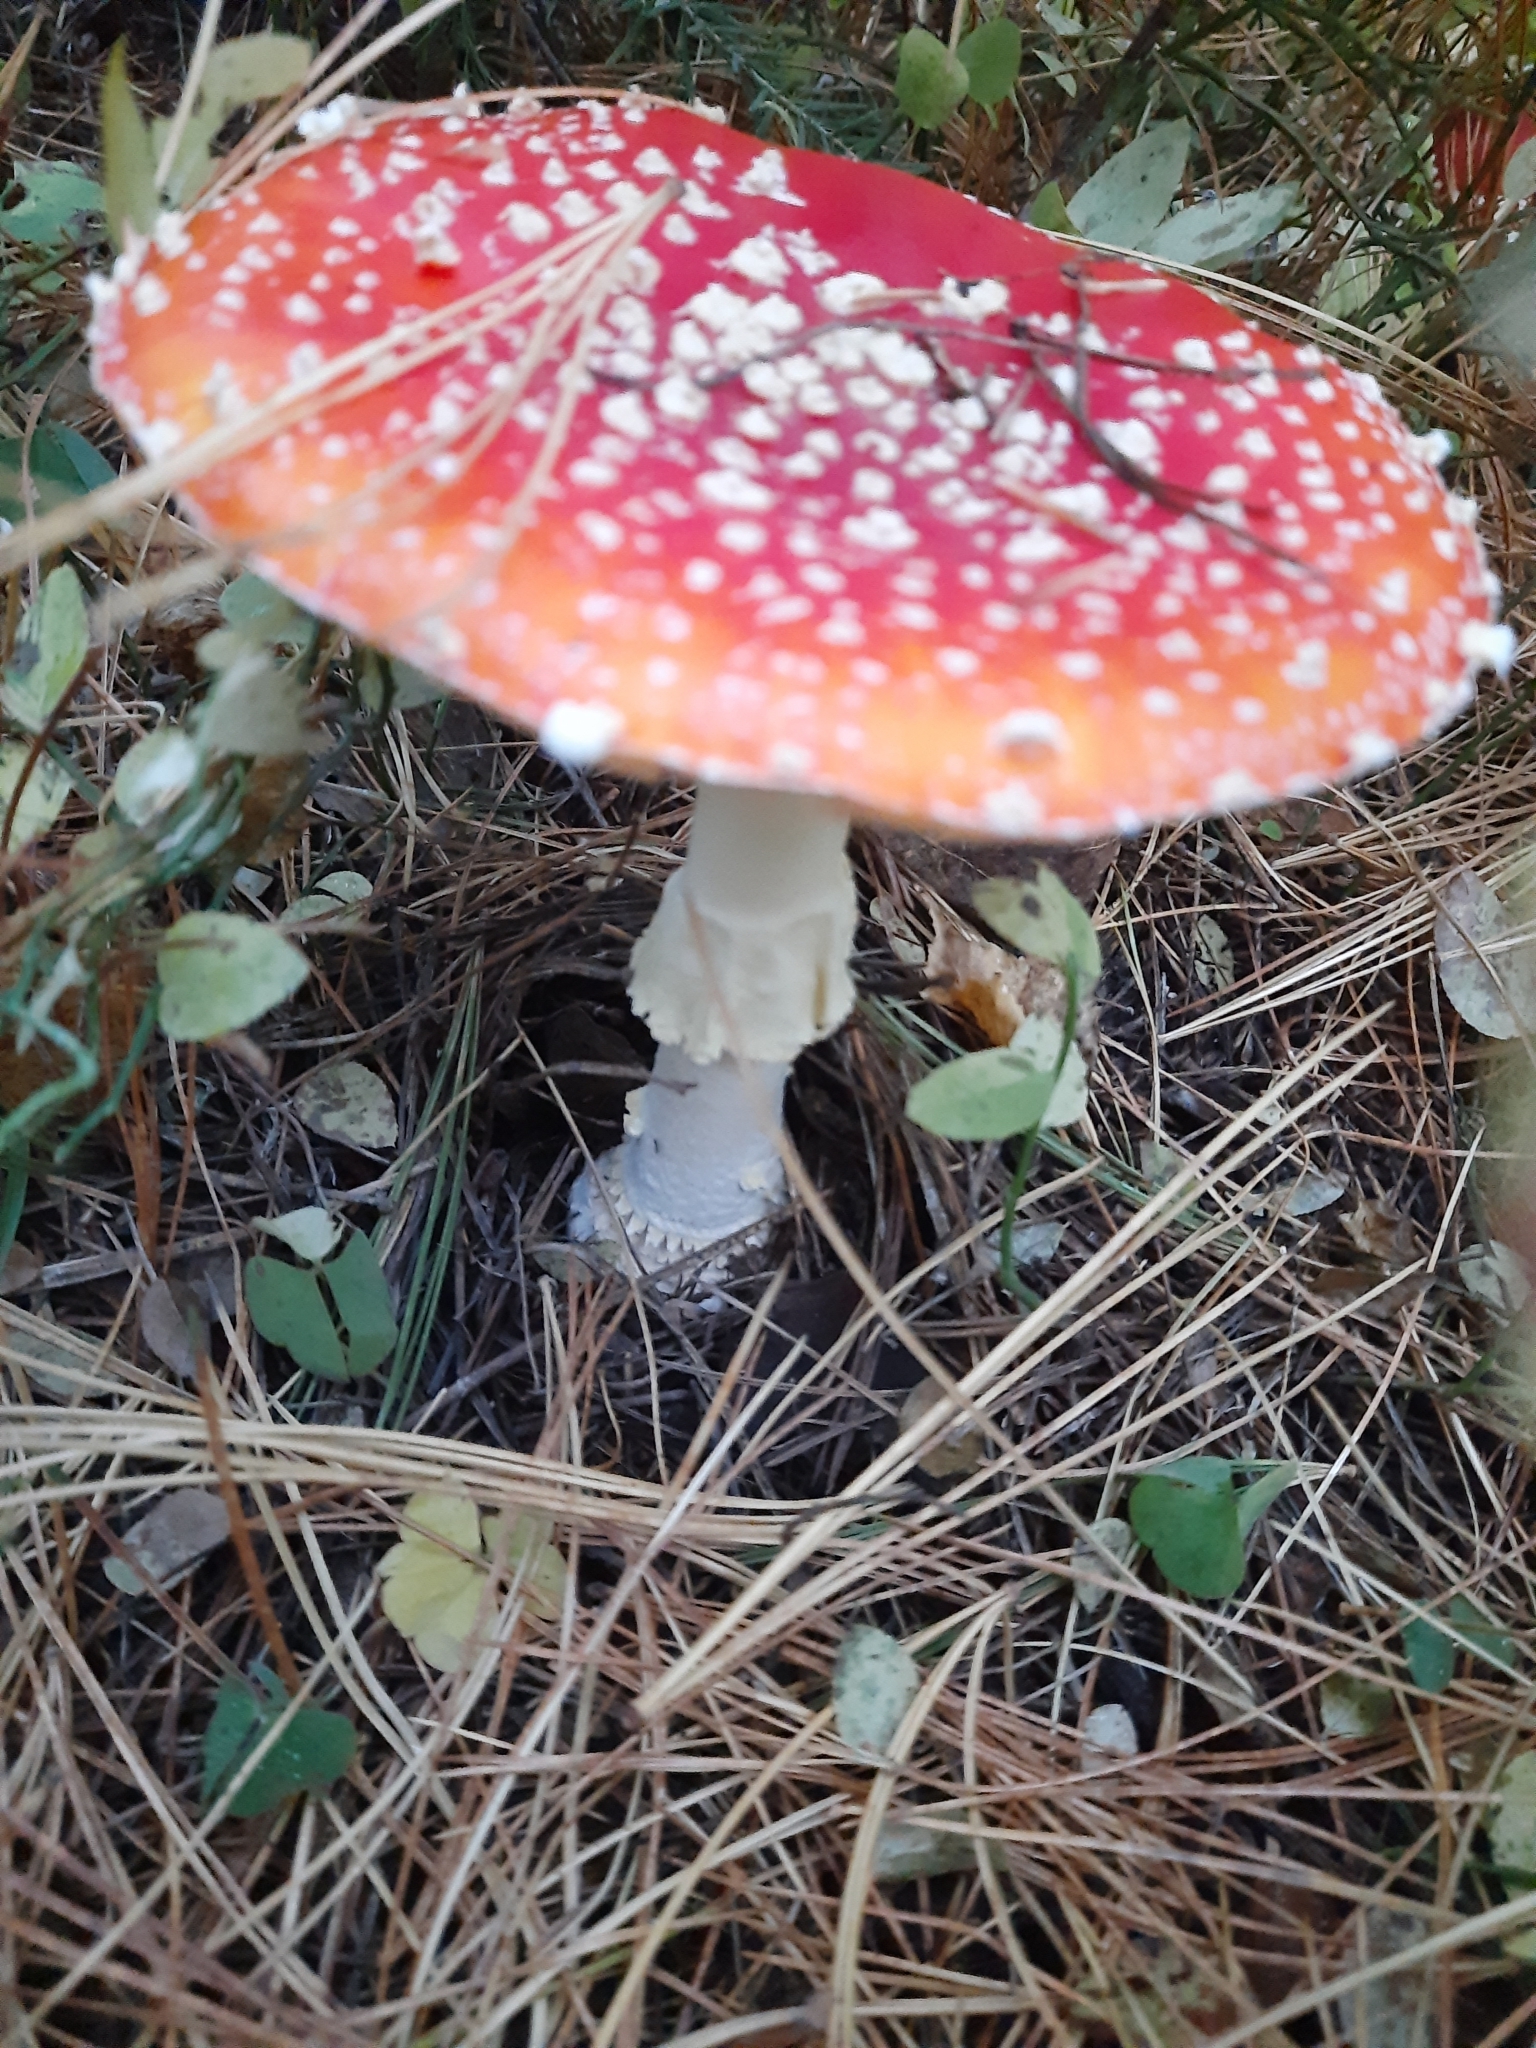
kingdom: Fungi
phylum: Basidiomycota
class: Agaricomycetes
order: Agaricales
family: Amanitaceae
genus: Amanita
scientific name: Amanita muscaria
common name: Fly agaric
